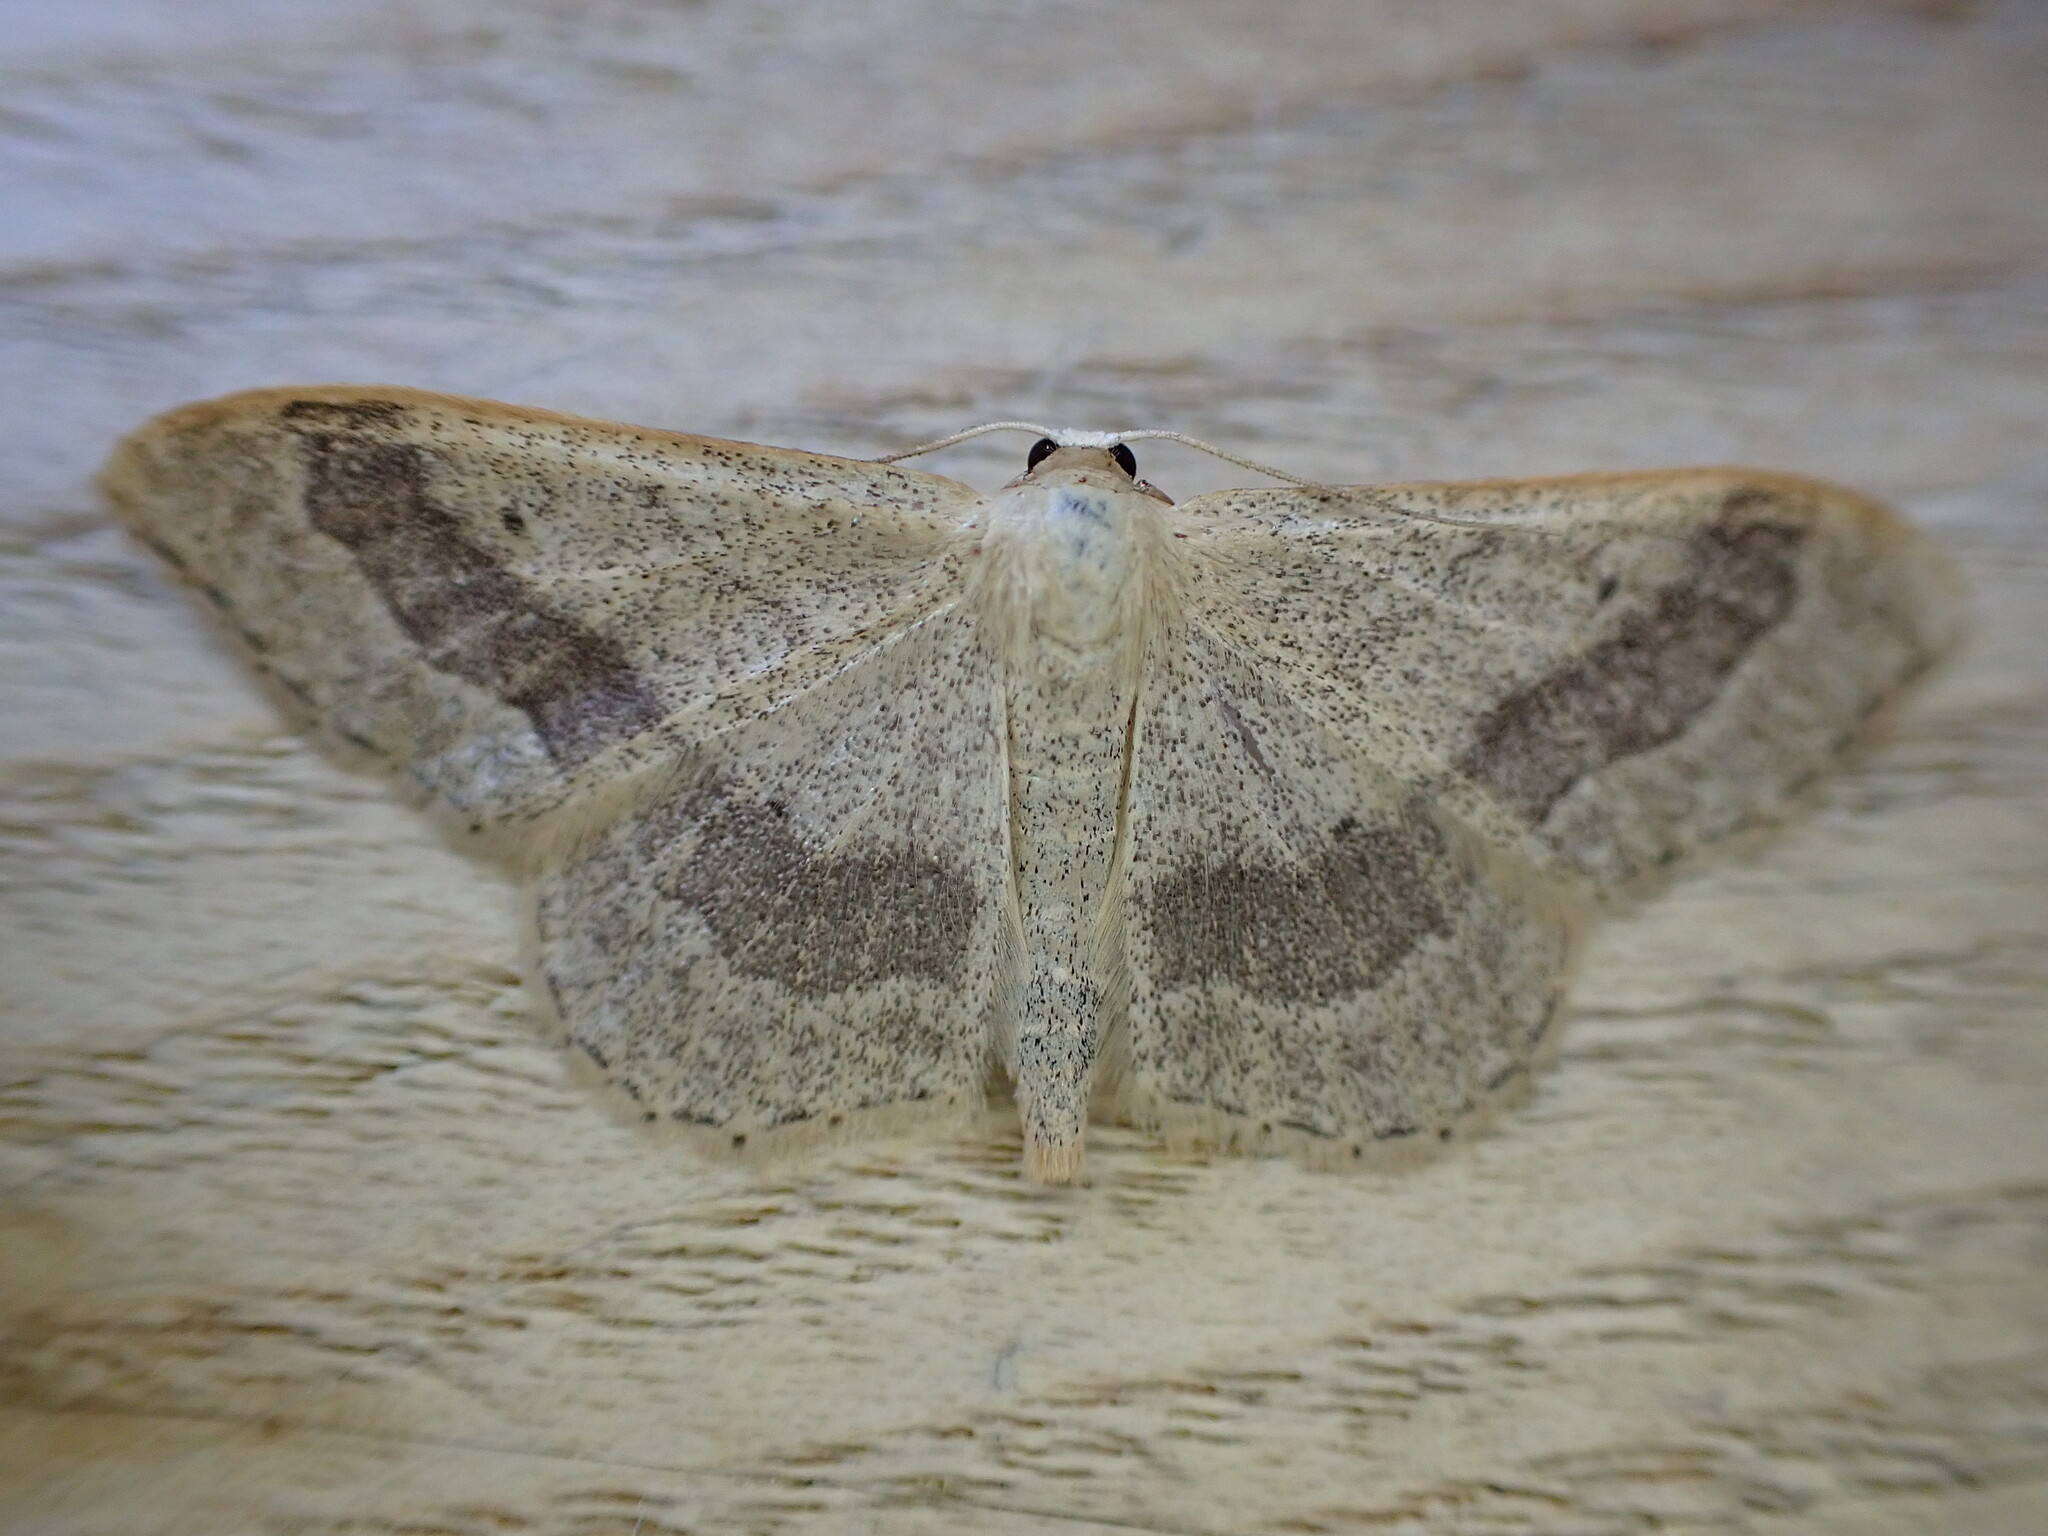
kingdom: Animalia
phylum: Arthropoda
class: Insecta
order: Lepidoptera
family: Geometridae
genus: Idaea
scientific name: Idaea aversata
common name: Riband wave
